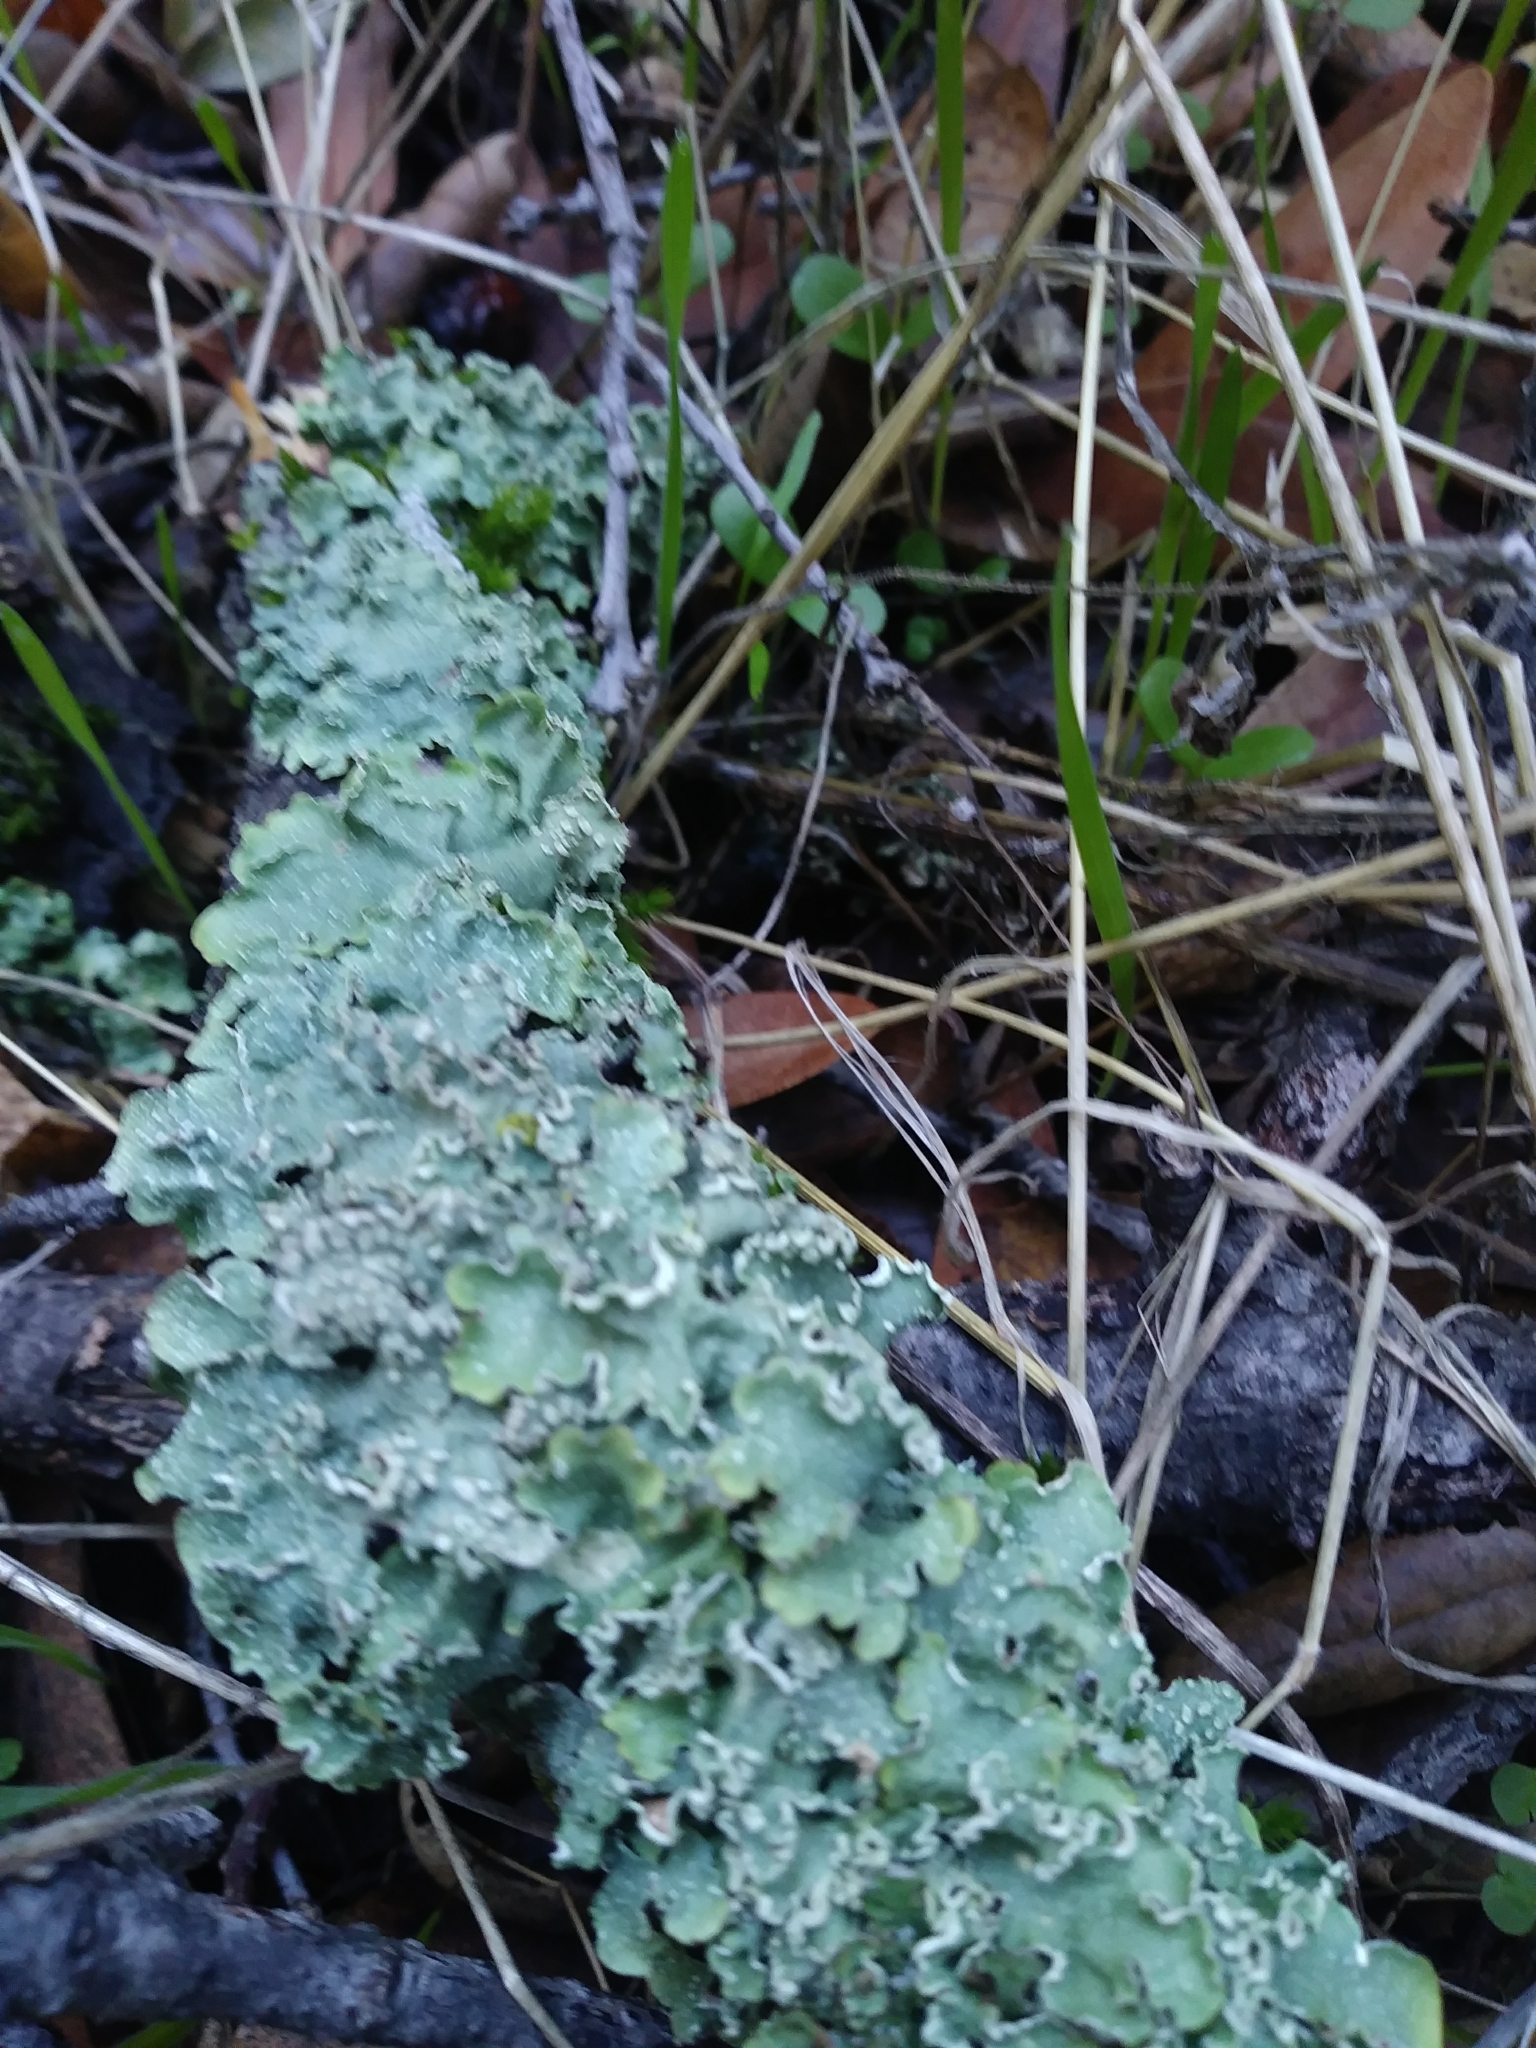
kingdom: Fungi
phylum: Ascomycota
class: Lecanoromycetes
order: Lecanorales
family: Parmeliaceae
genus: Flavopunctelia
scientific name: Flavopunctelia flaventior
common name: Speckled greenshield
